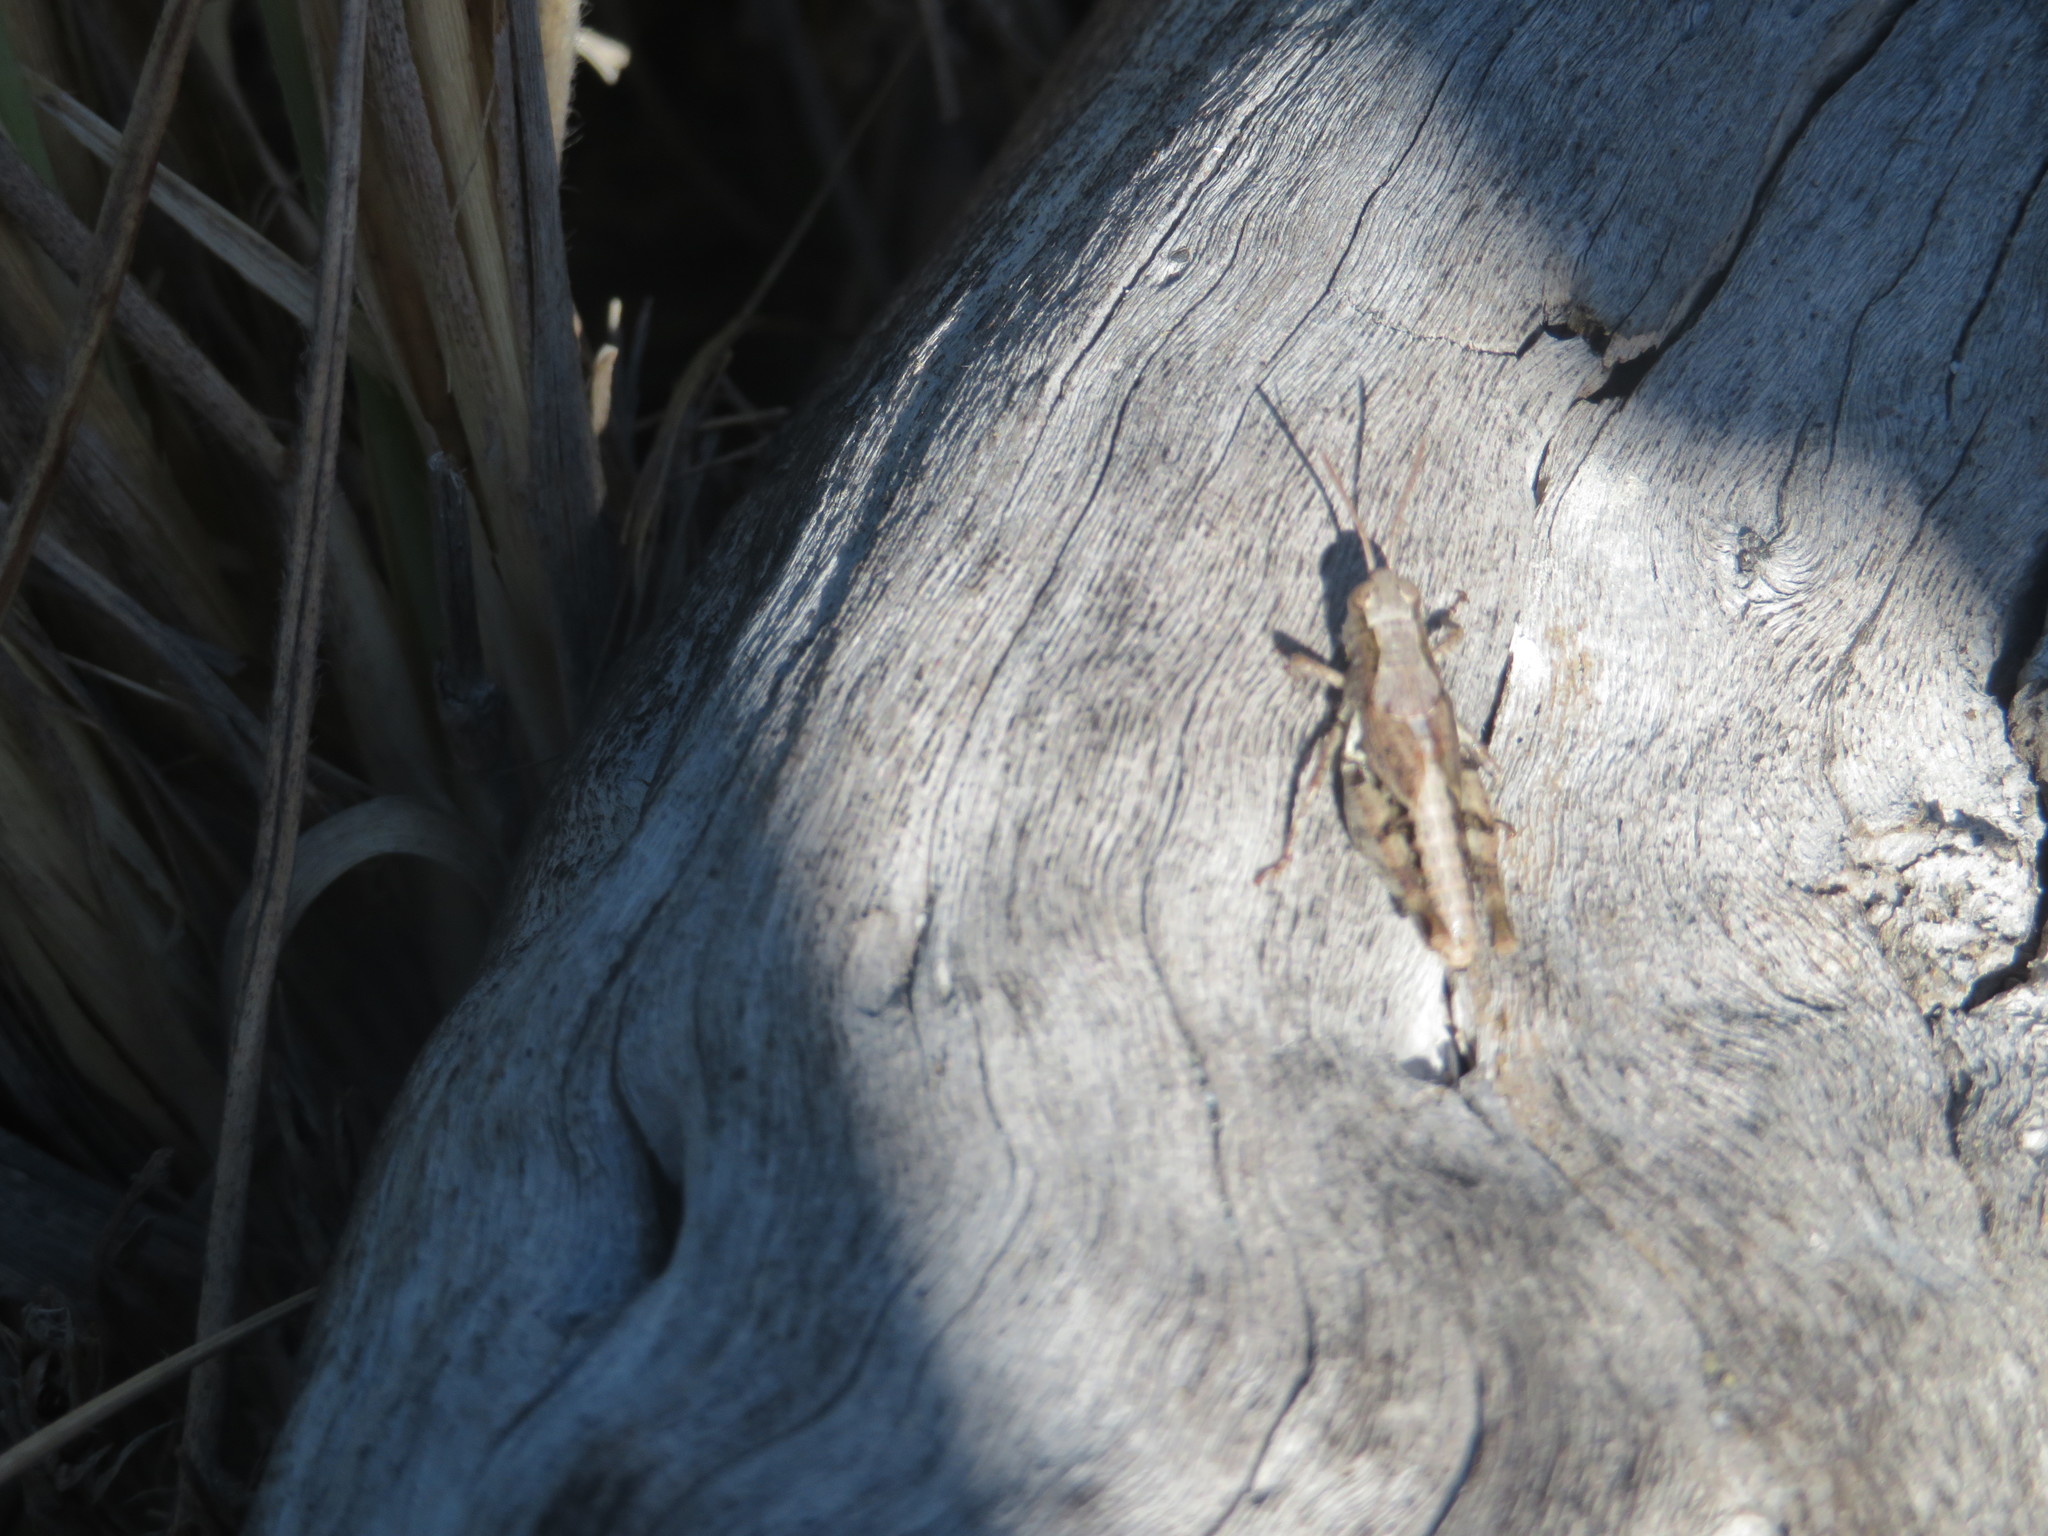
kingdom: Animalia
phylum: Arthropoda
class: Insecta
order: Orthoptera
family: Acrididae
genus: Phaulacridium
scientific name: Phaulacridium marginale
